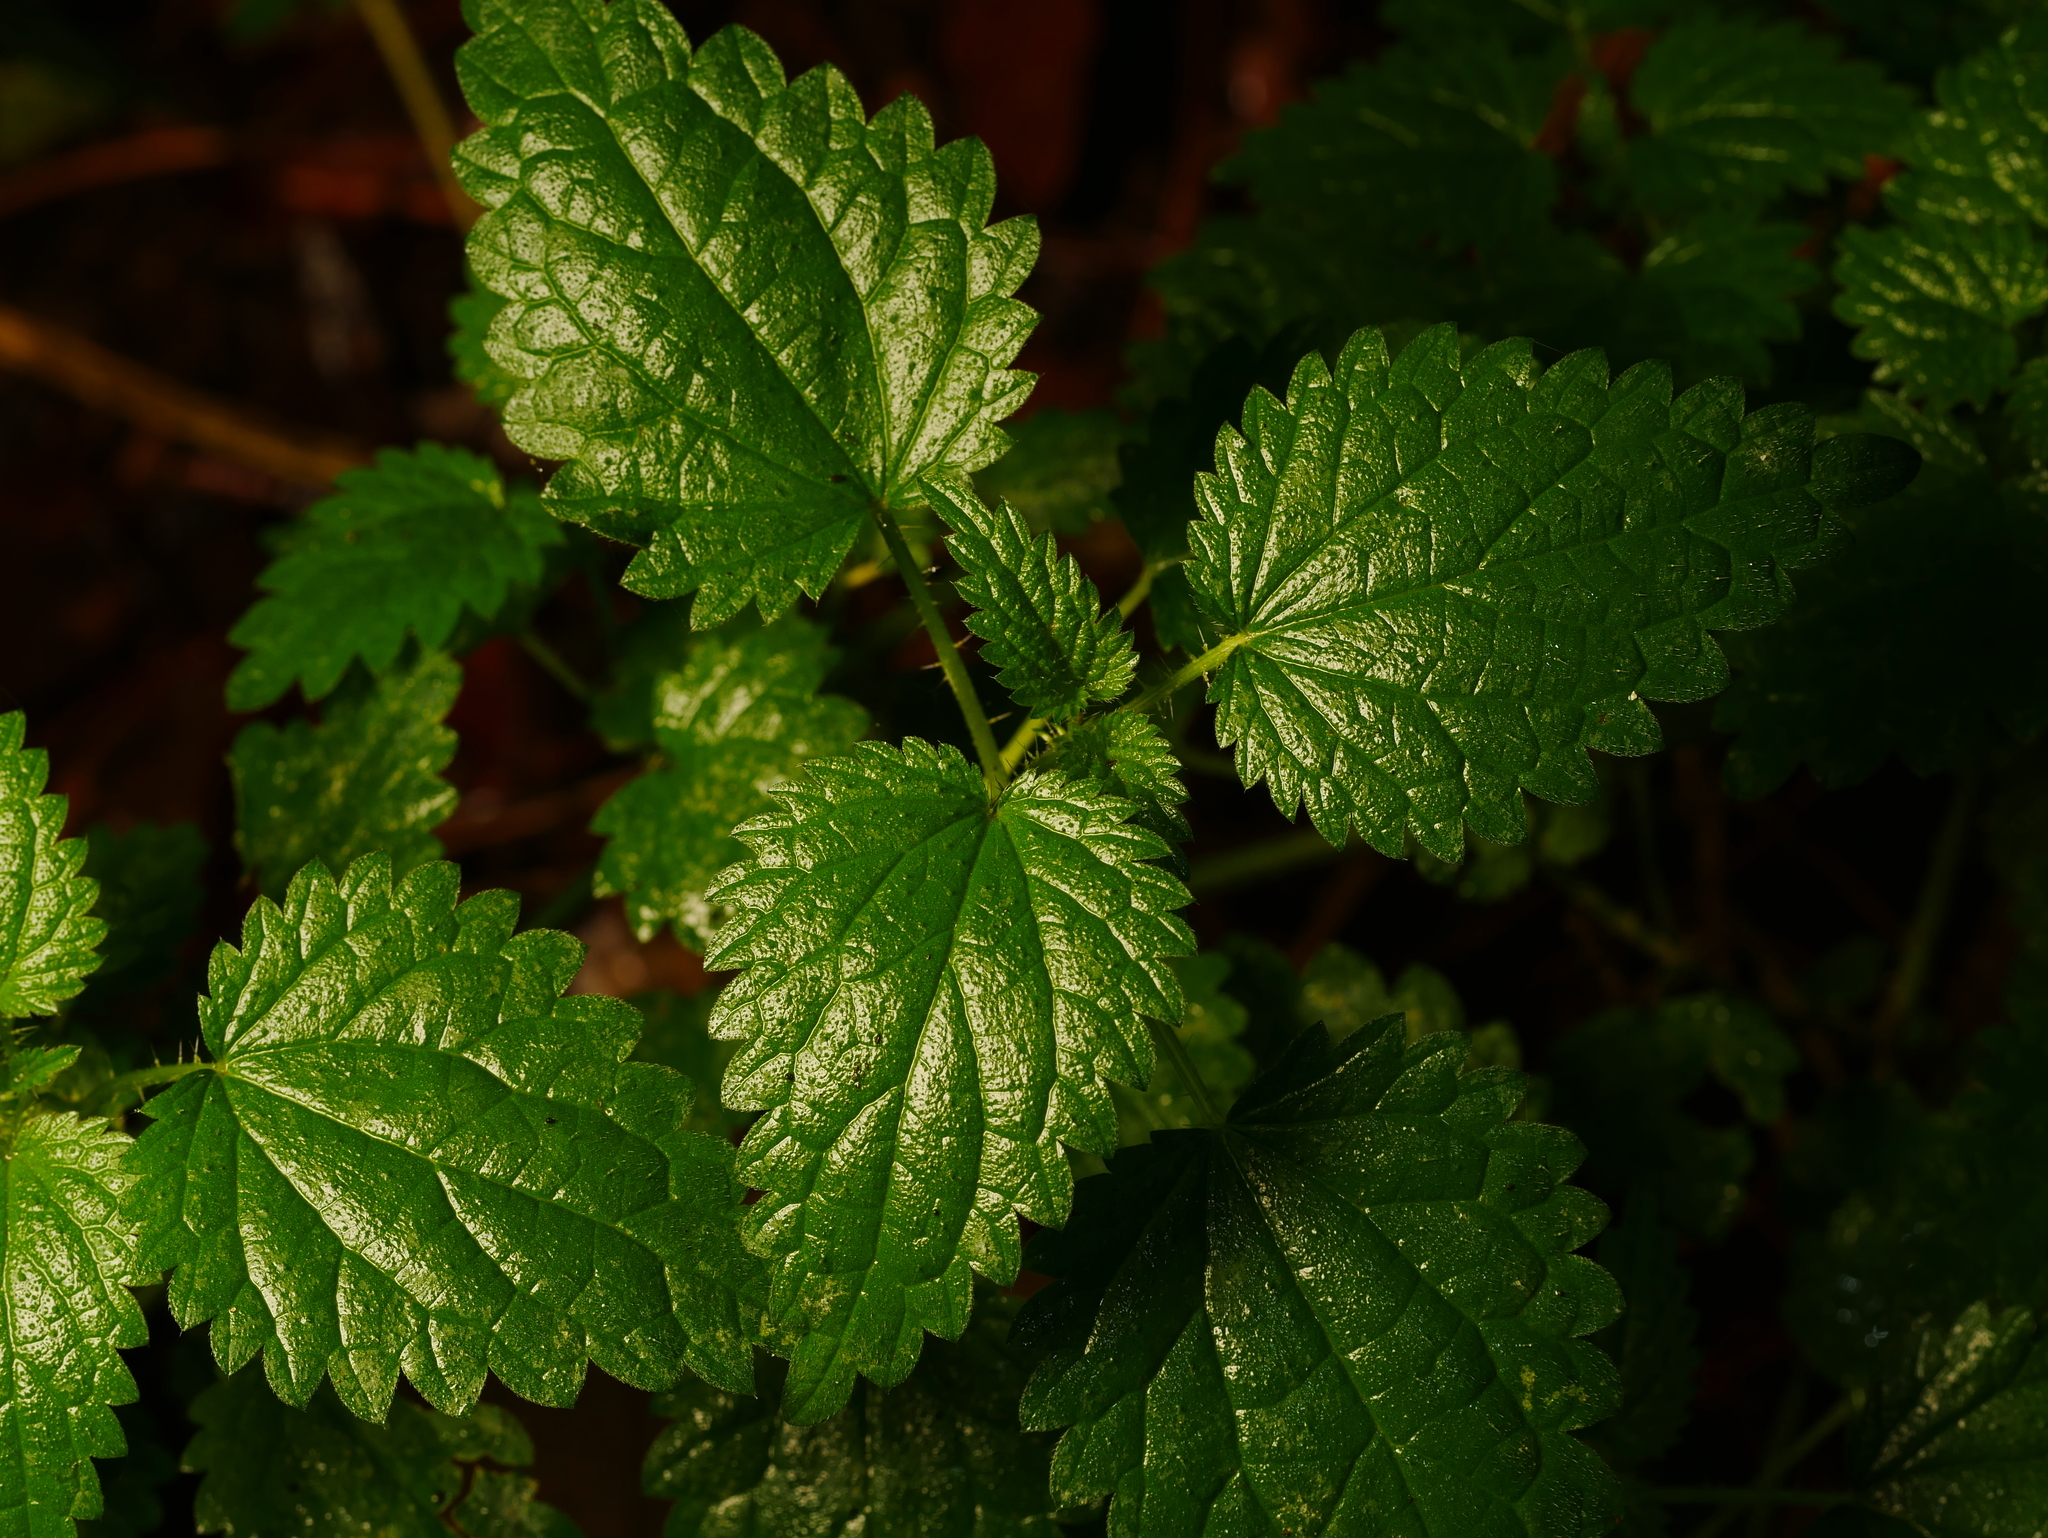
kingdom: Plantae
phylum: Tracheophyta
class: Magnoliopsida
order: Rosales
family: Urticaceae
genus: Urtica
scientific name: Urtica dioica
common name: Common nettle
